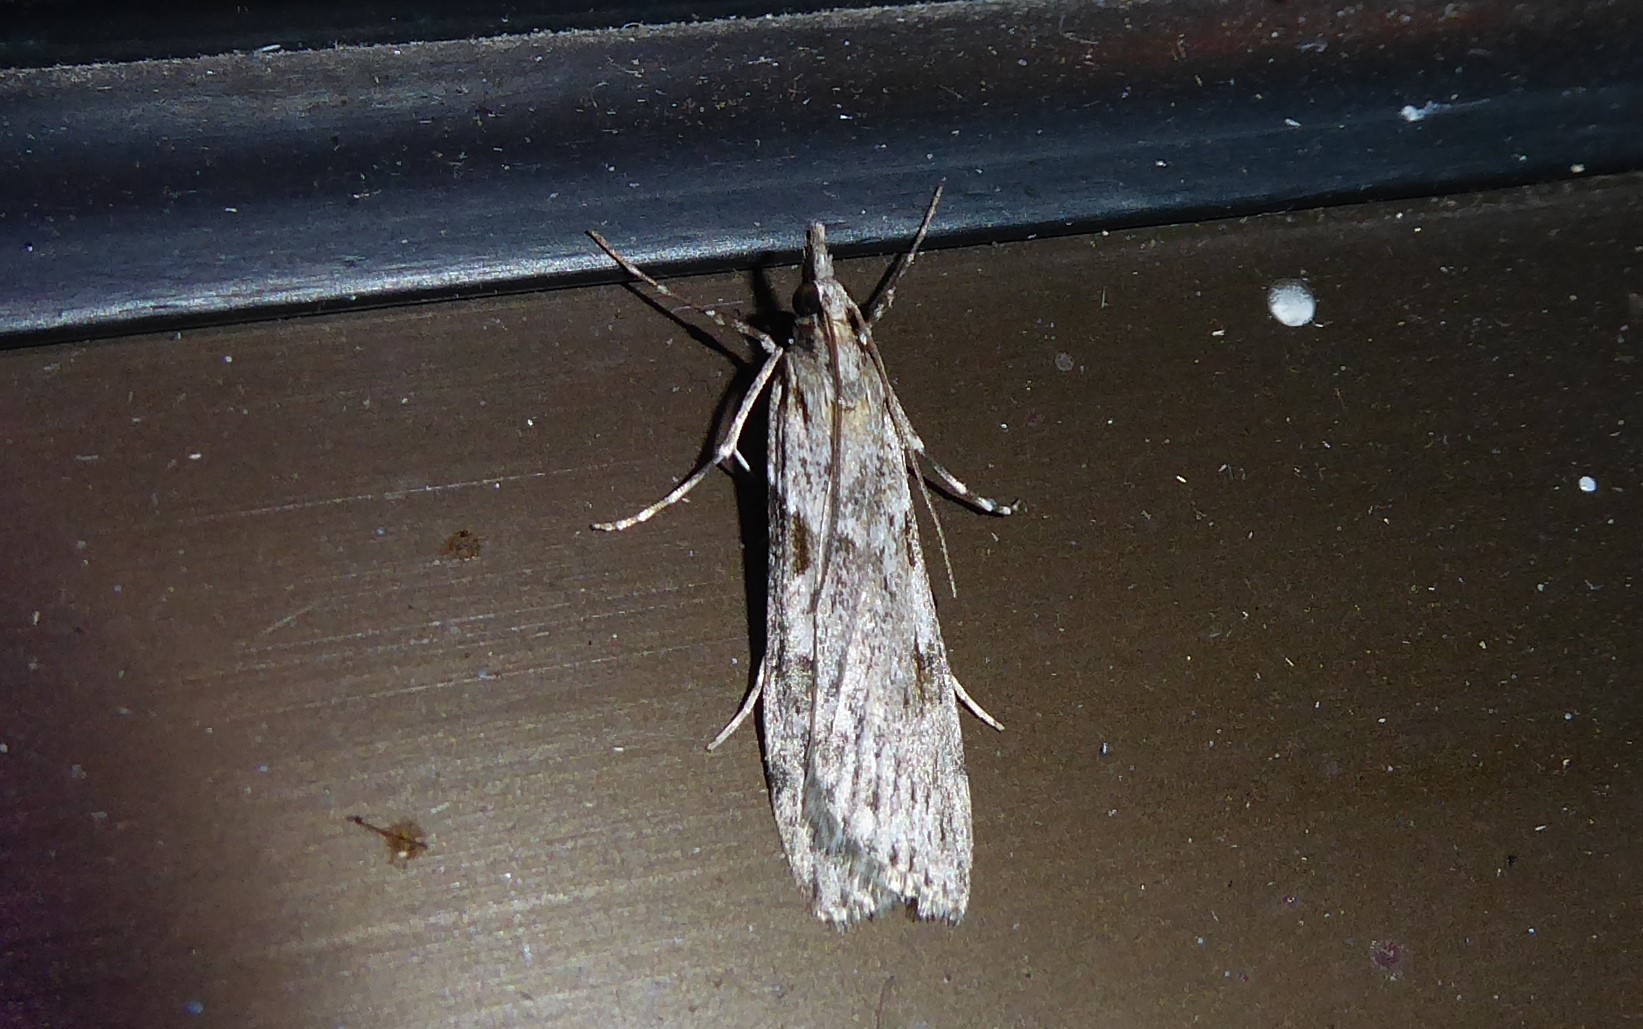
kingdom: Animalia
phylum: Arthropoda
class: Insecta
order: Lepidoptera
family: Crambidae
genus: Scoparia
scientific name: Scoparia halopis
